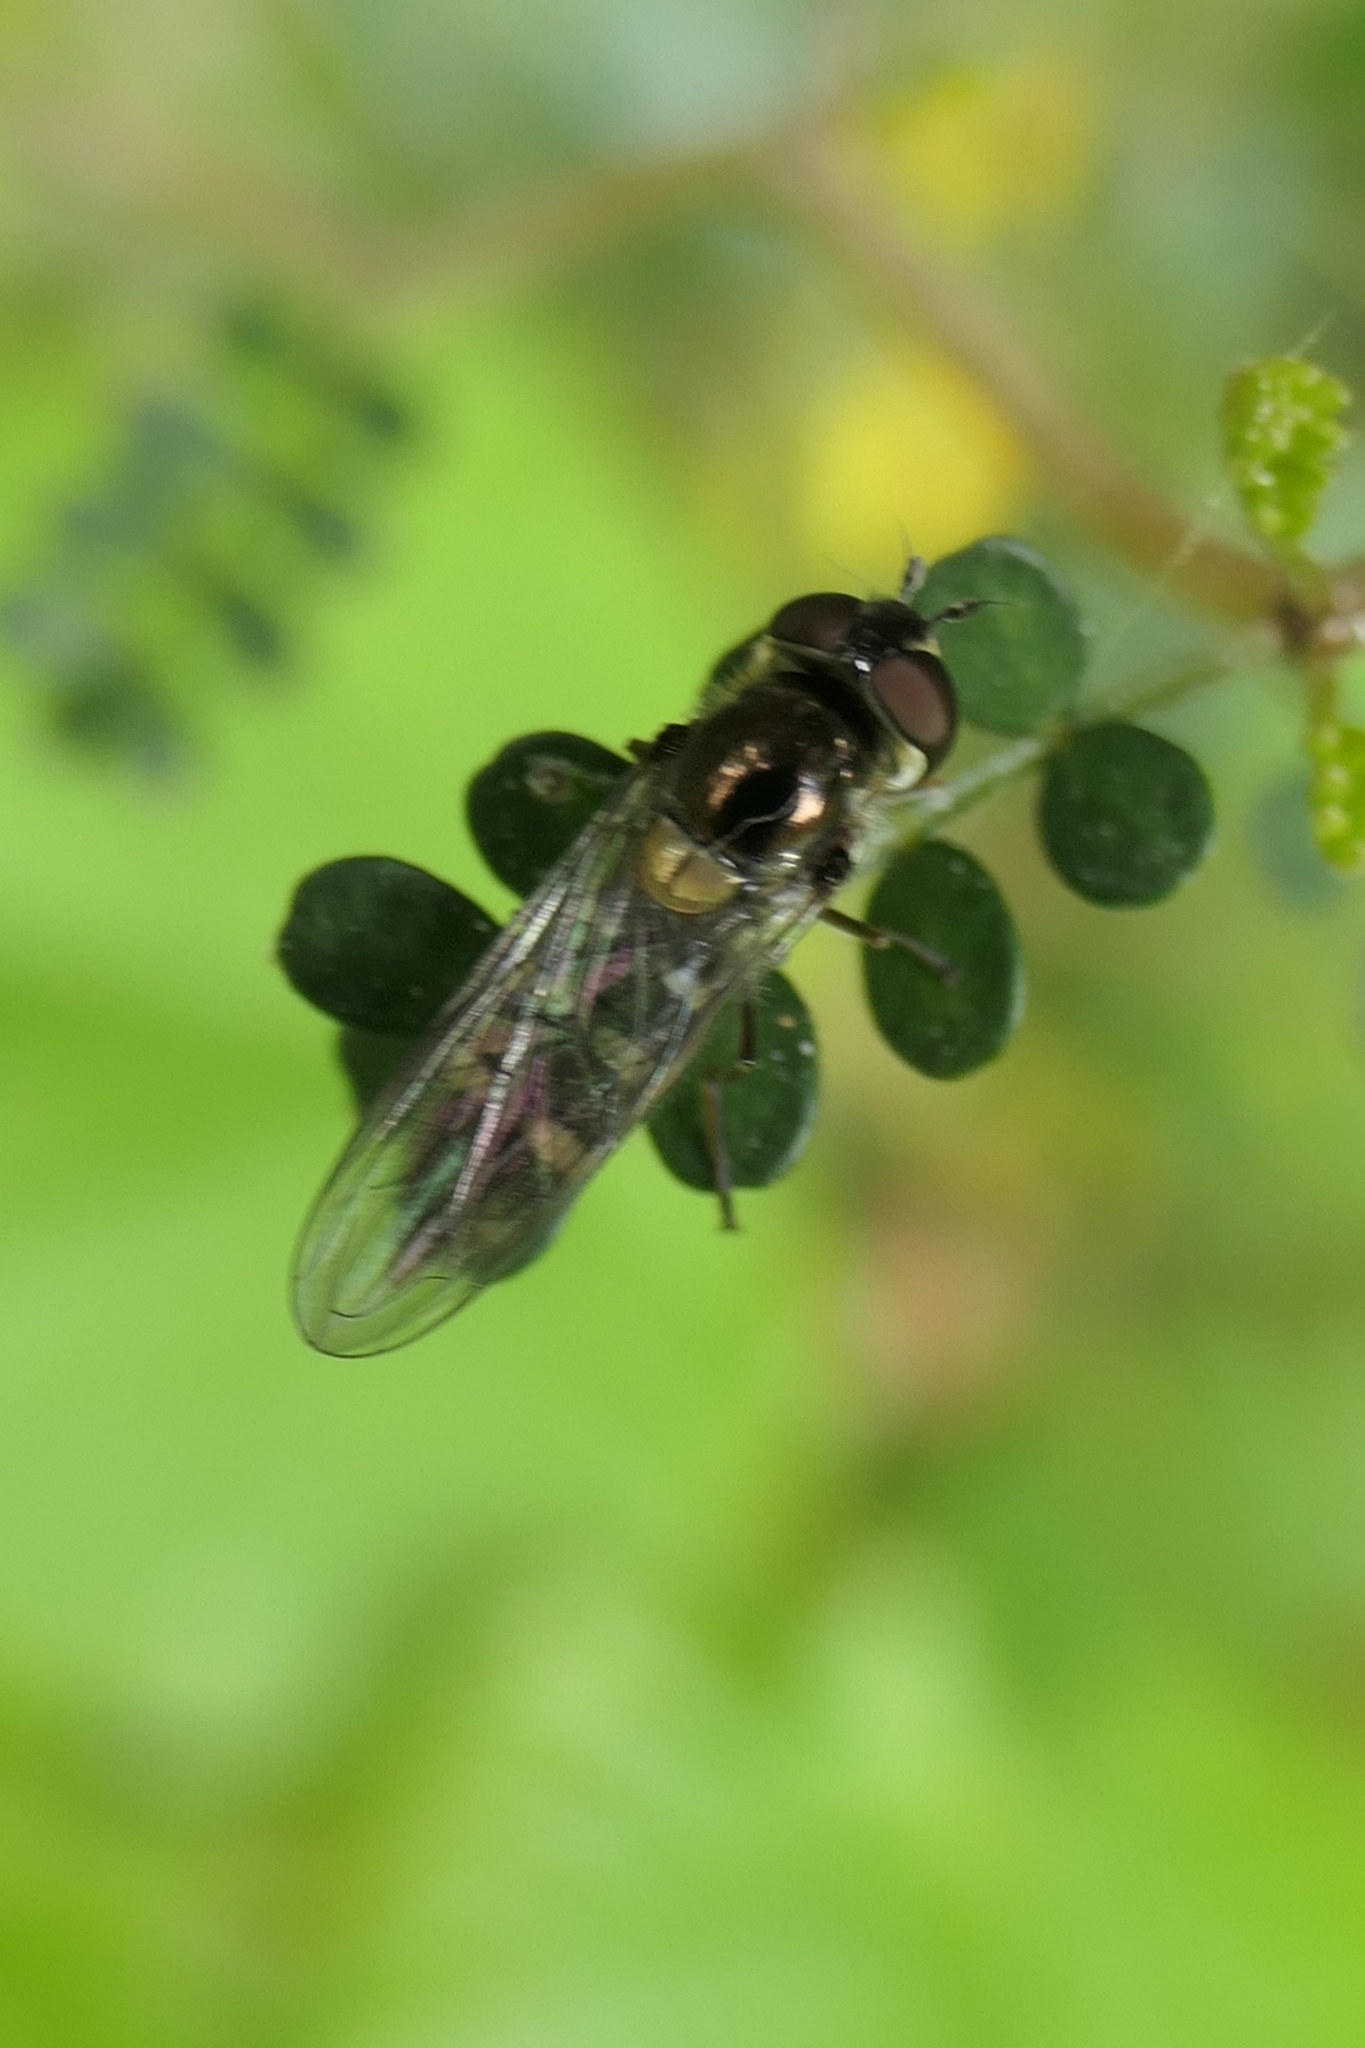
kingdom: Animalia
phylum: Arthropoda
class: Insecta
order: Diptera
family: Syrphidae
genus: Melangyna
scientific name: Melangyna novaezelandiae
